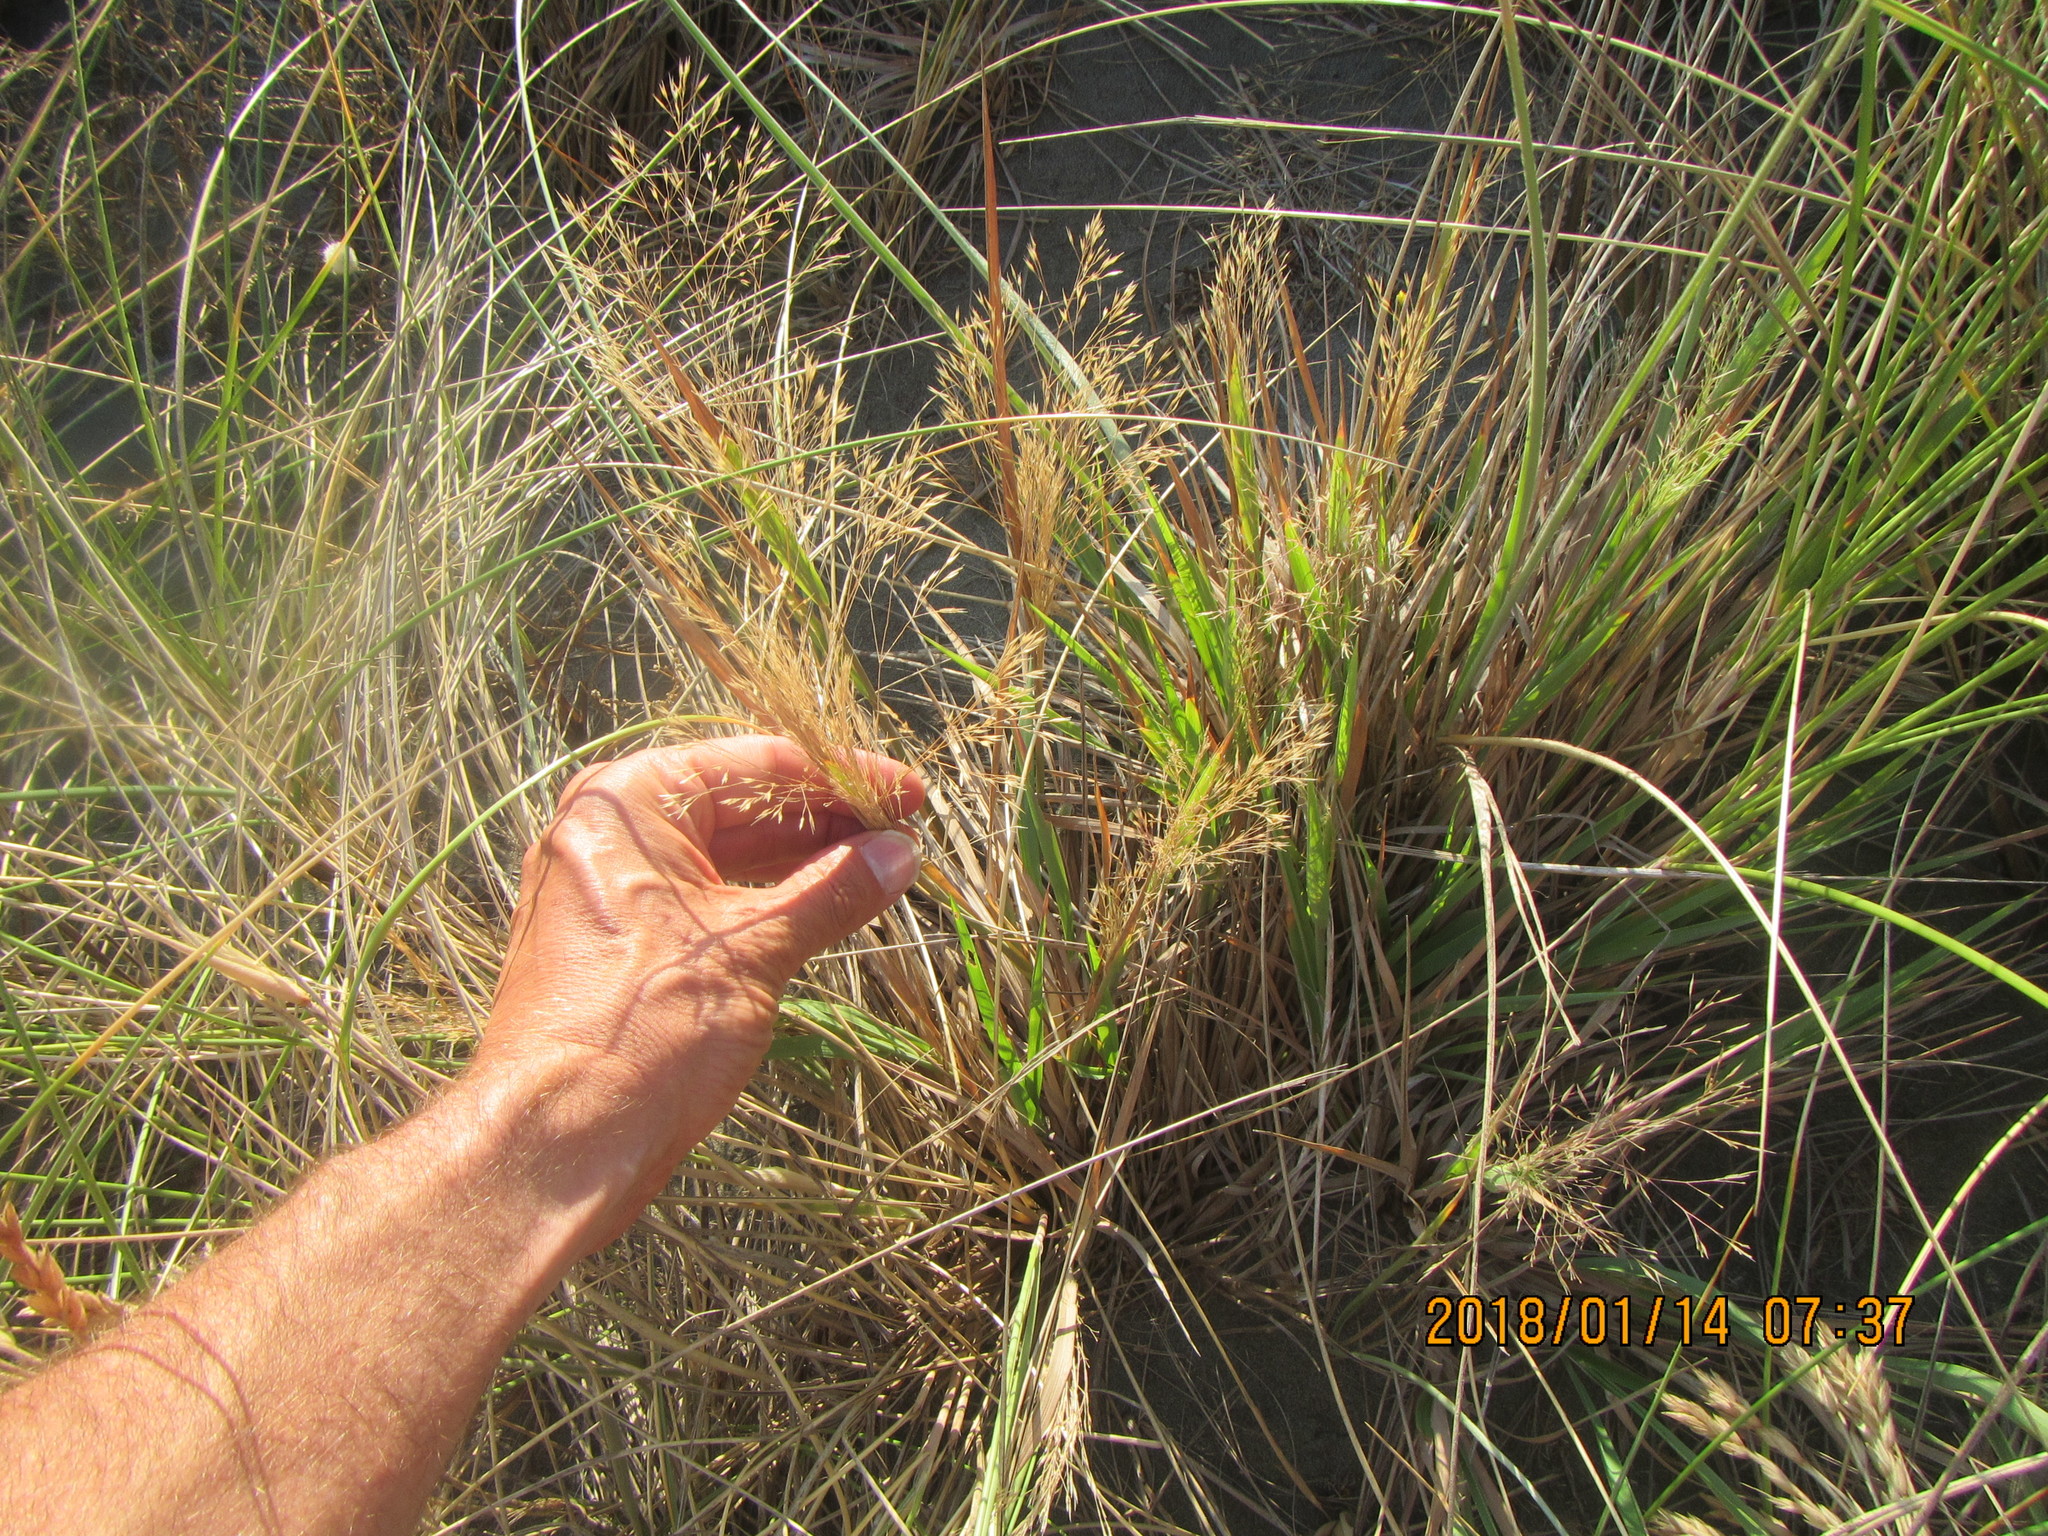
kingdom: Plantae
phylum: Tracheophyta
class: Liliopsida
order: Poales
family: Poaceae
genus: Lachnagrostis
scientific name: Lachnagrostis billardierei
